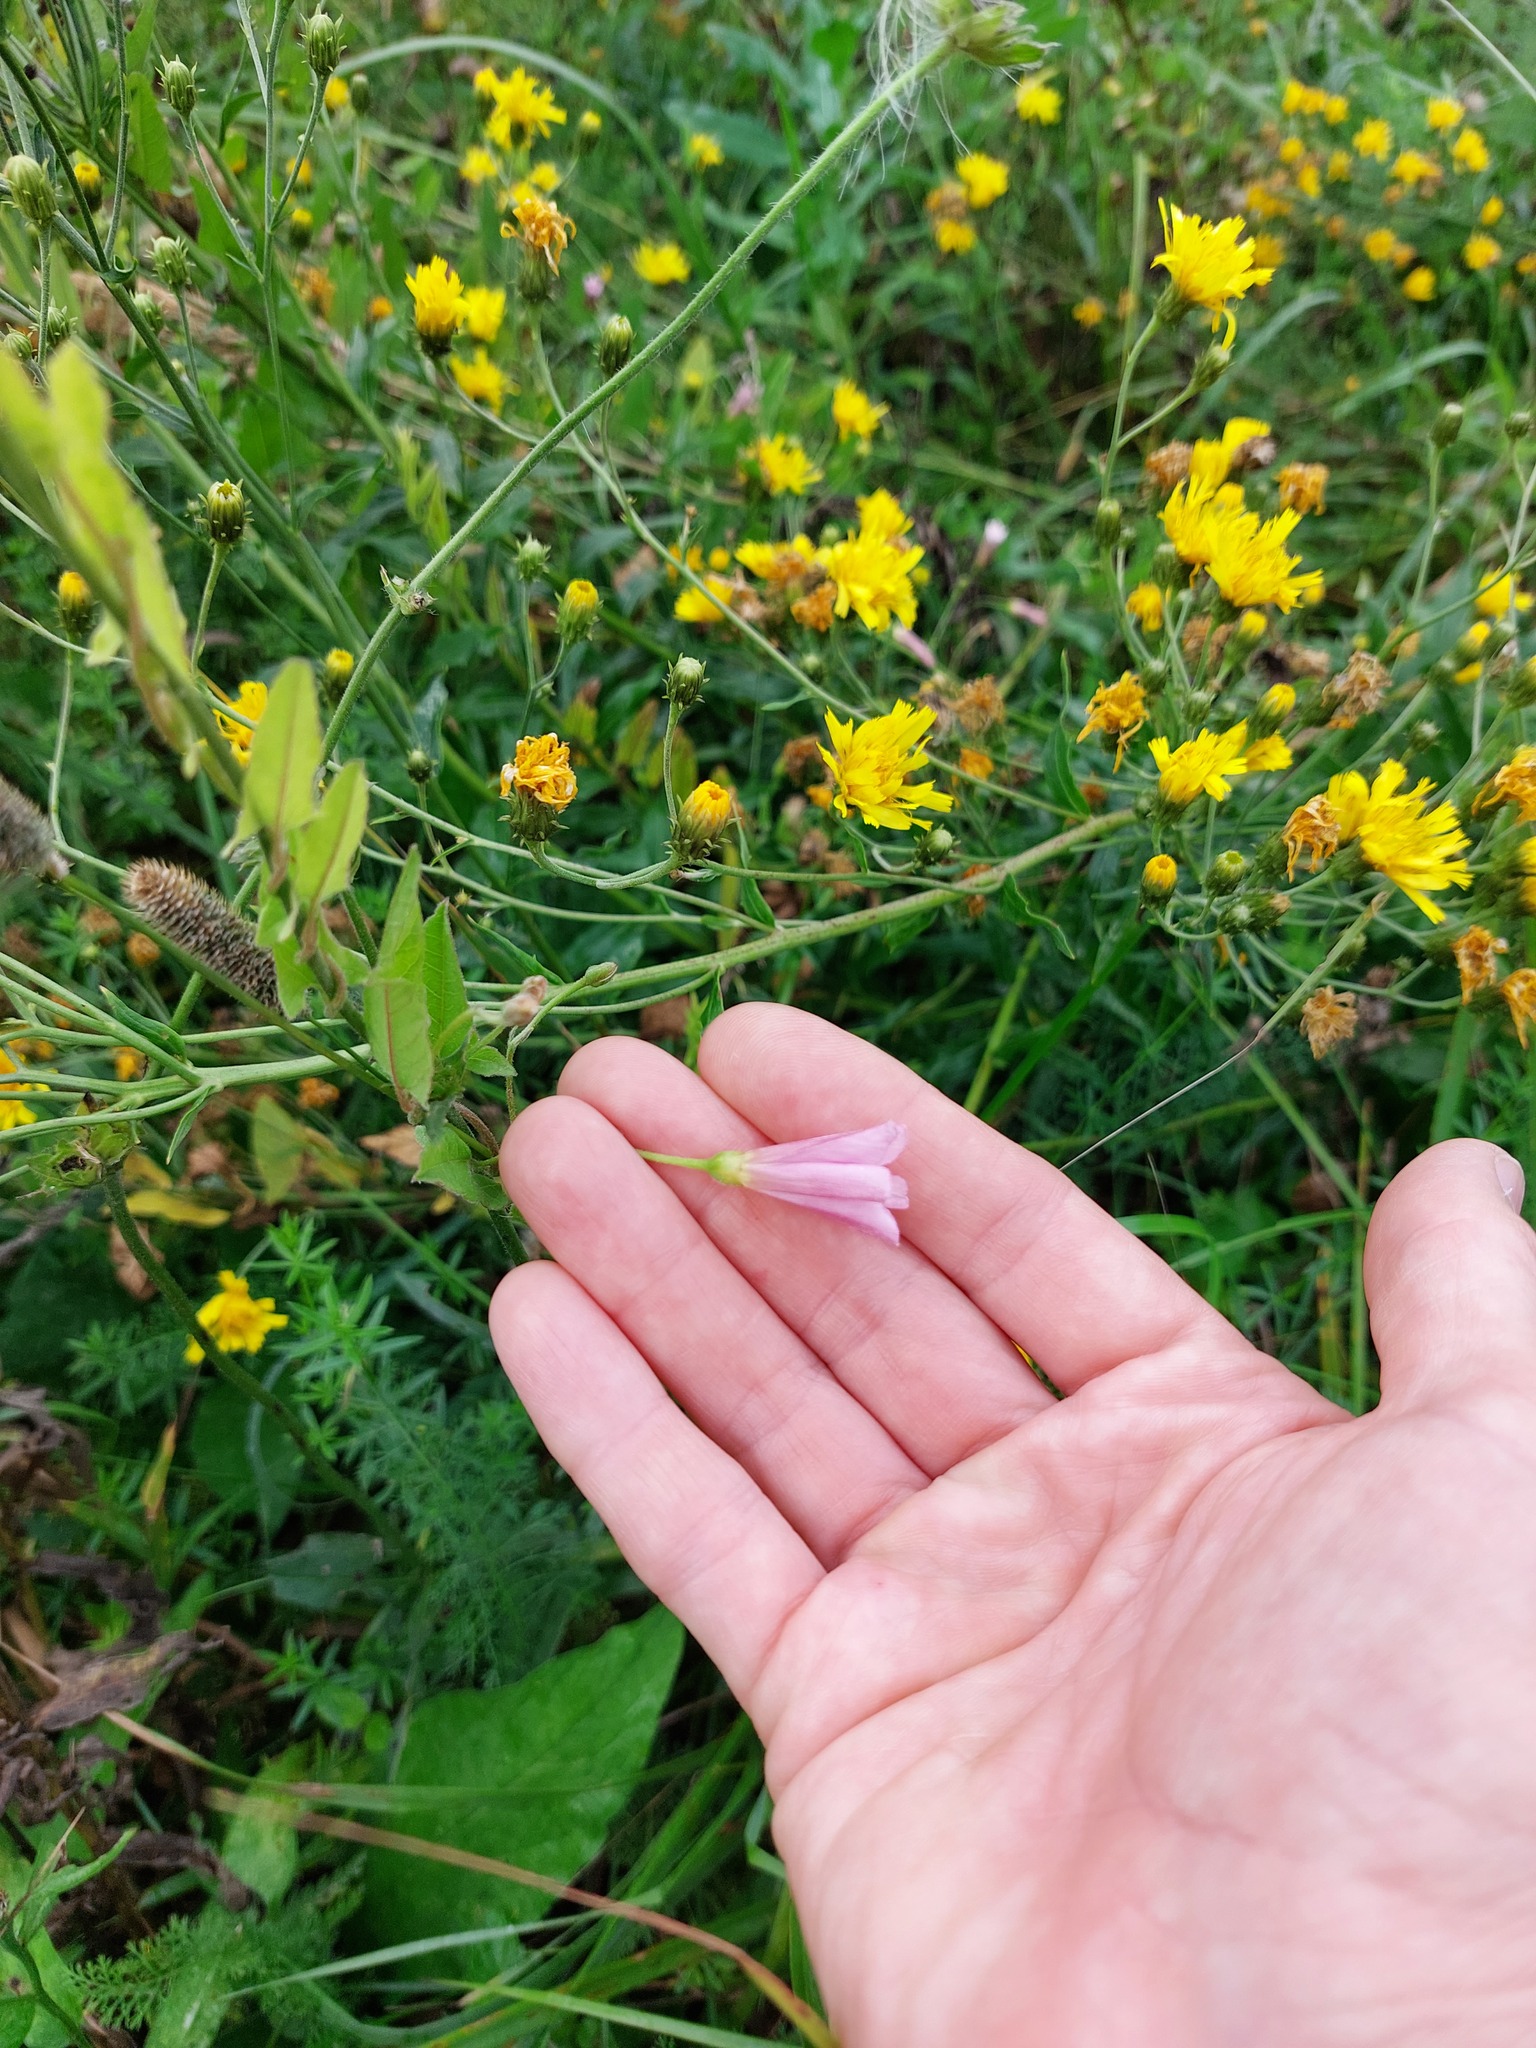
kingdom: Plantae
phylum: Tracheophyta
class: Magnoliopsida
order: Solanales
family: Convolvulaceae
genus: Convolvulus
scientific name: Convolvulus arvensis
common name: Field bindweed
